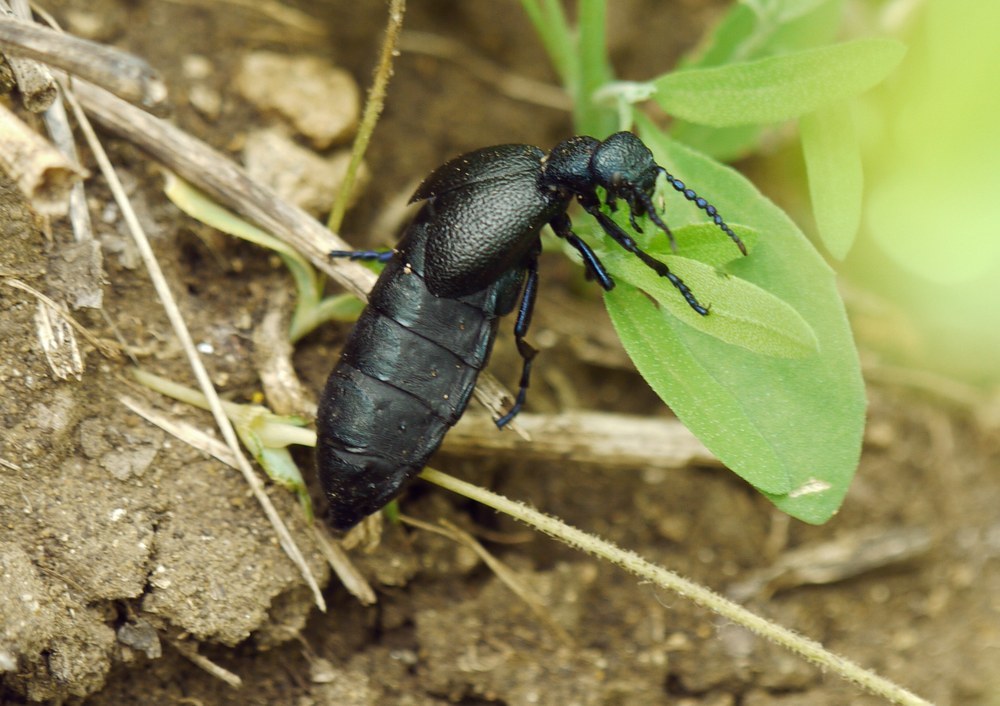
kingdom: Animalia
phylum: Arthropoda
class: Insecta
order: Coleoptera
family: Meloidae
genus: Meloe
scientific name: Meloe proscarabaeus
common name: Black oil-beetle
